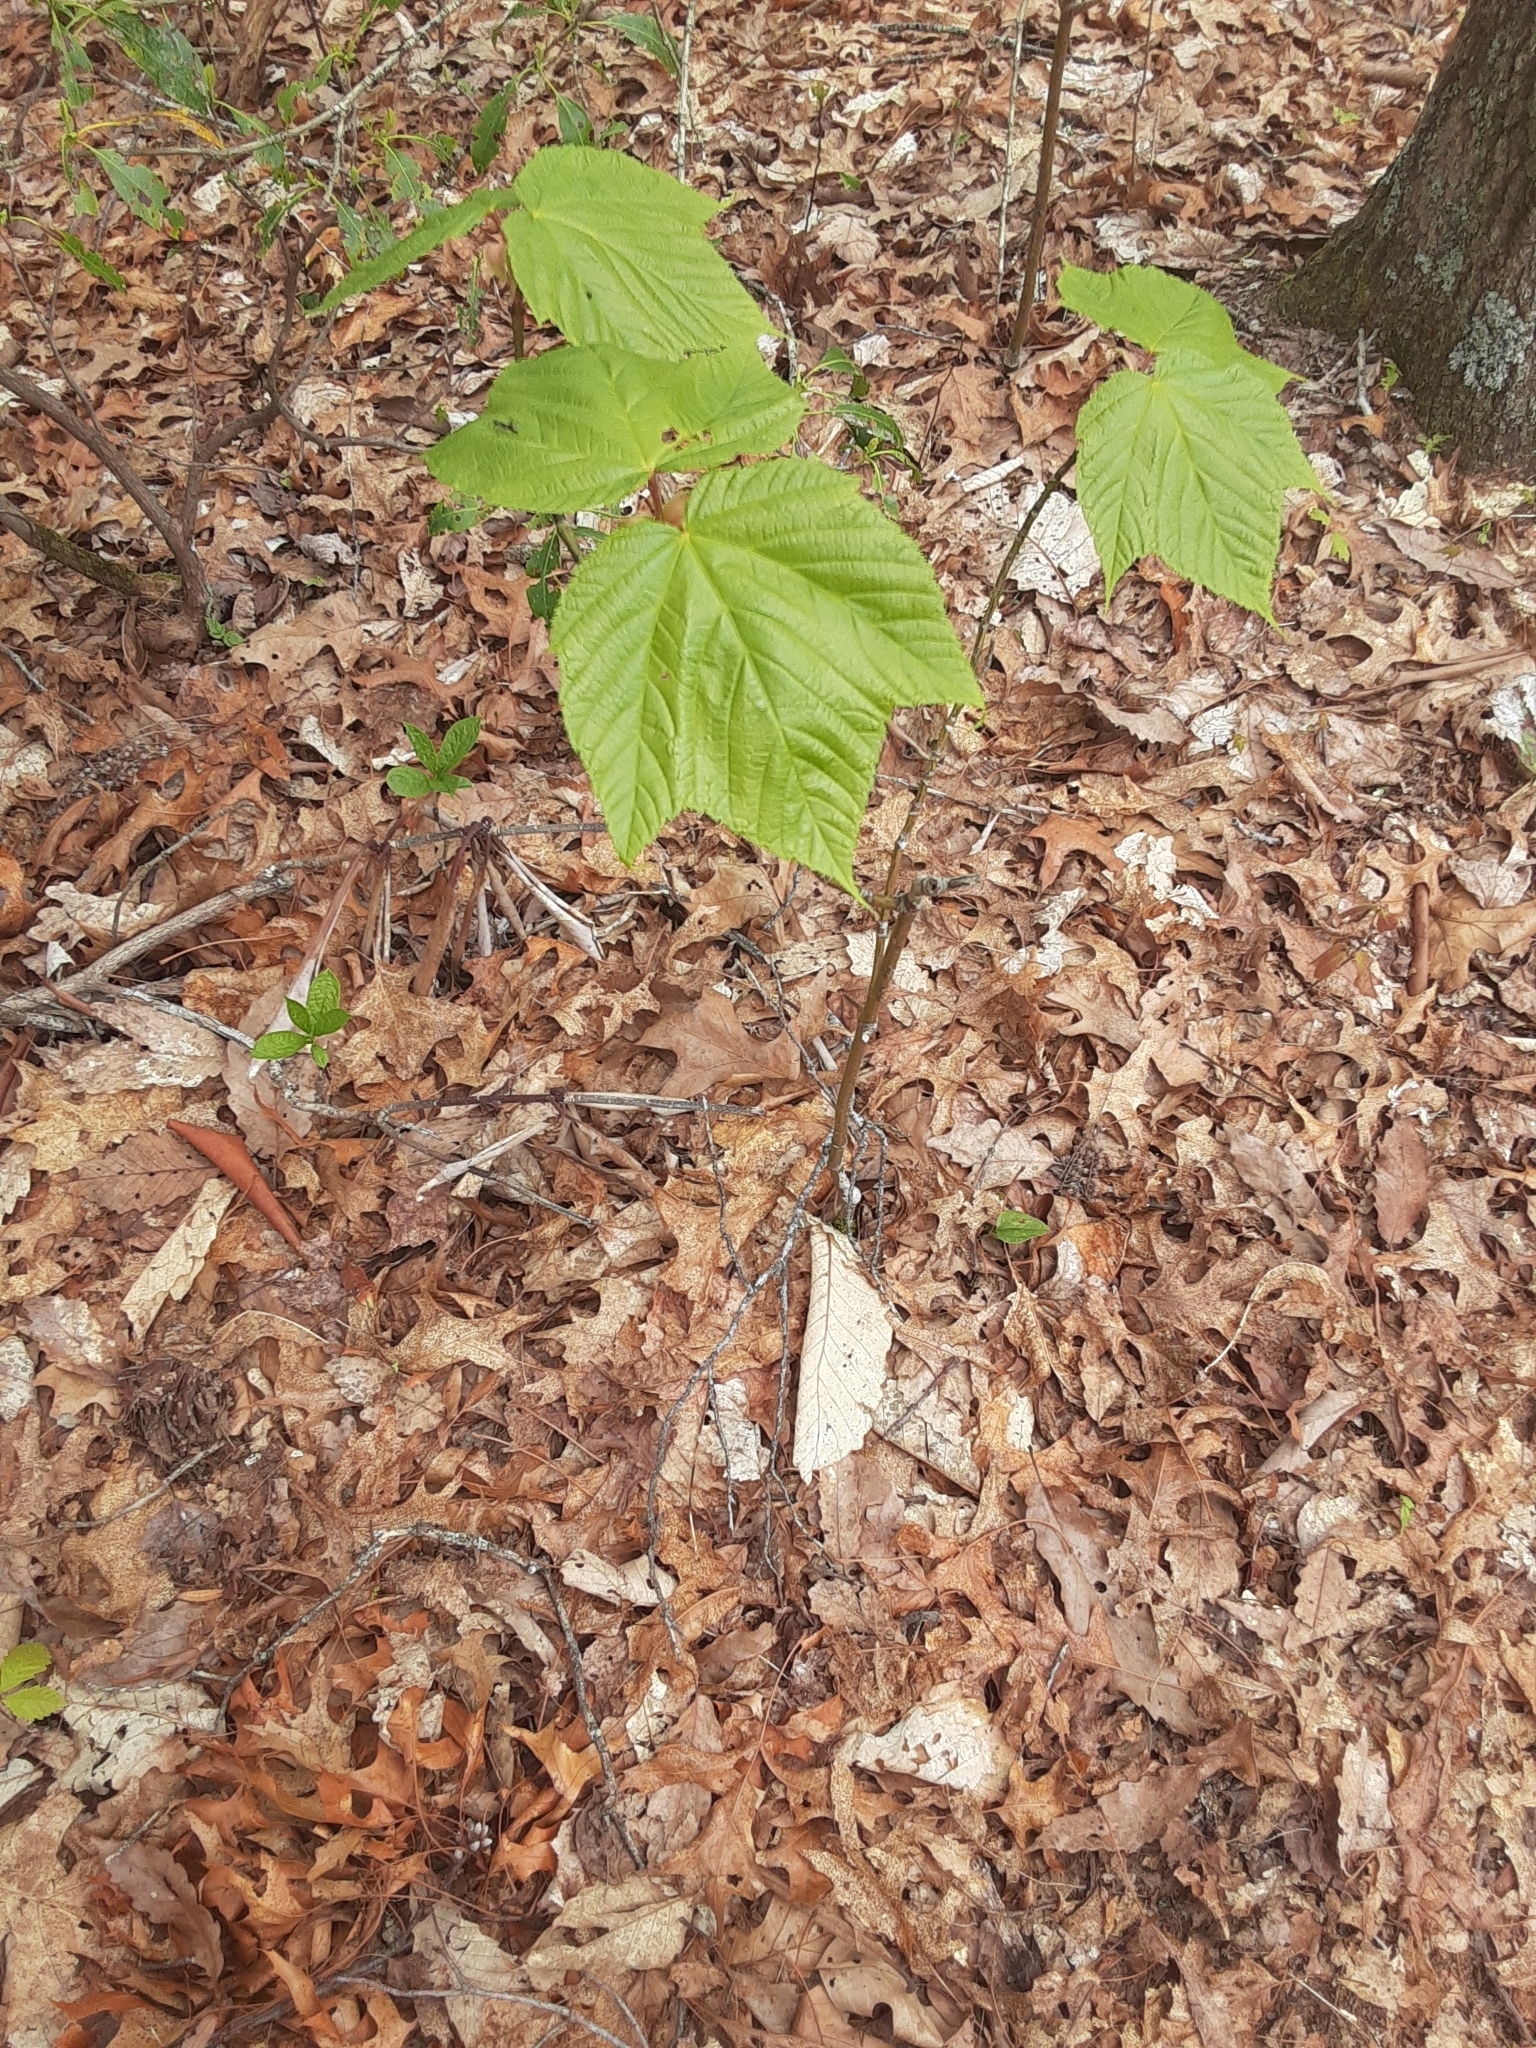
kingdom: Plantae
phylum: Tracheophyta
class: Magnoliopsida
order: Sapindales
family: Sapindaceae
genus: Acer
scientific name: Acer pensylvanicum
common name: Moosewood
